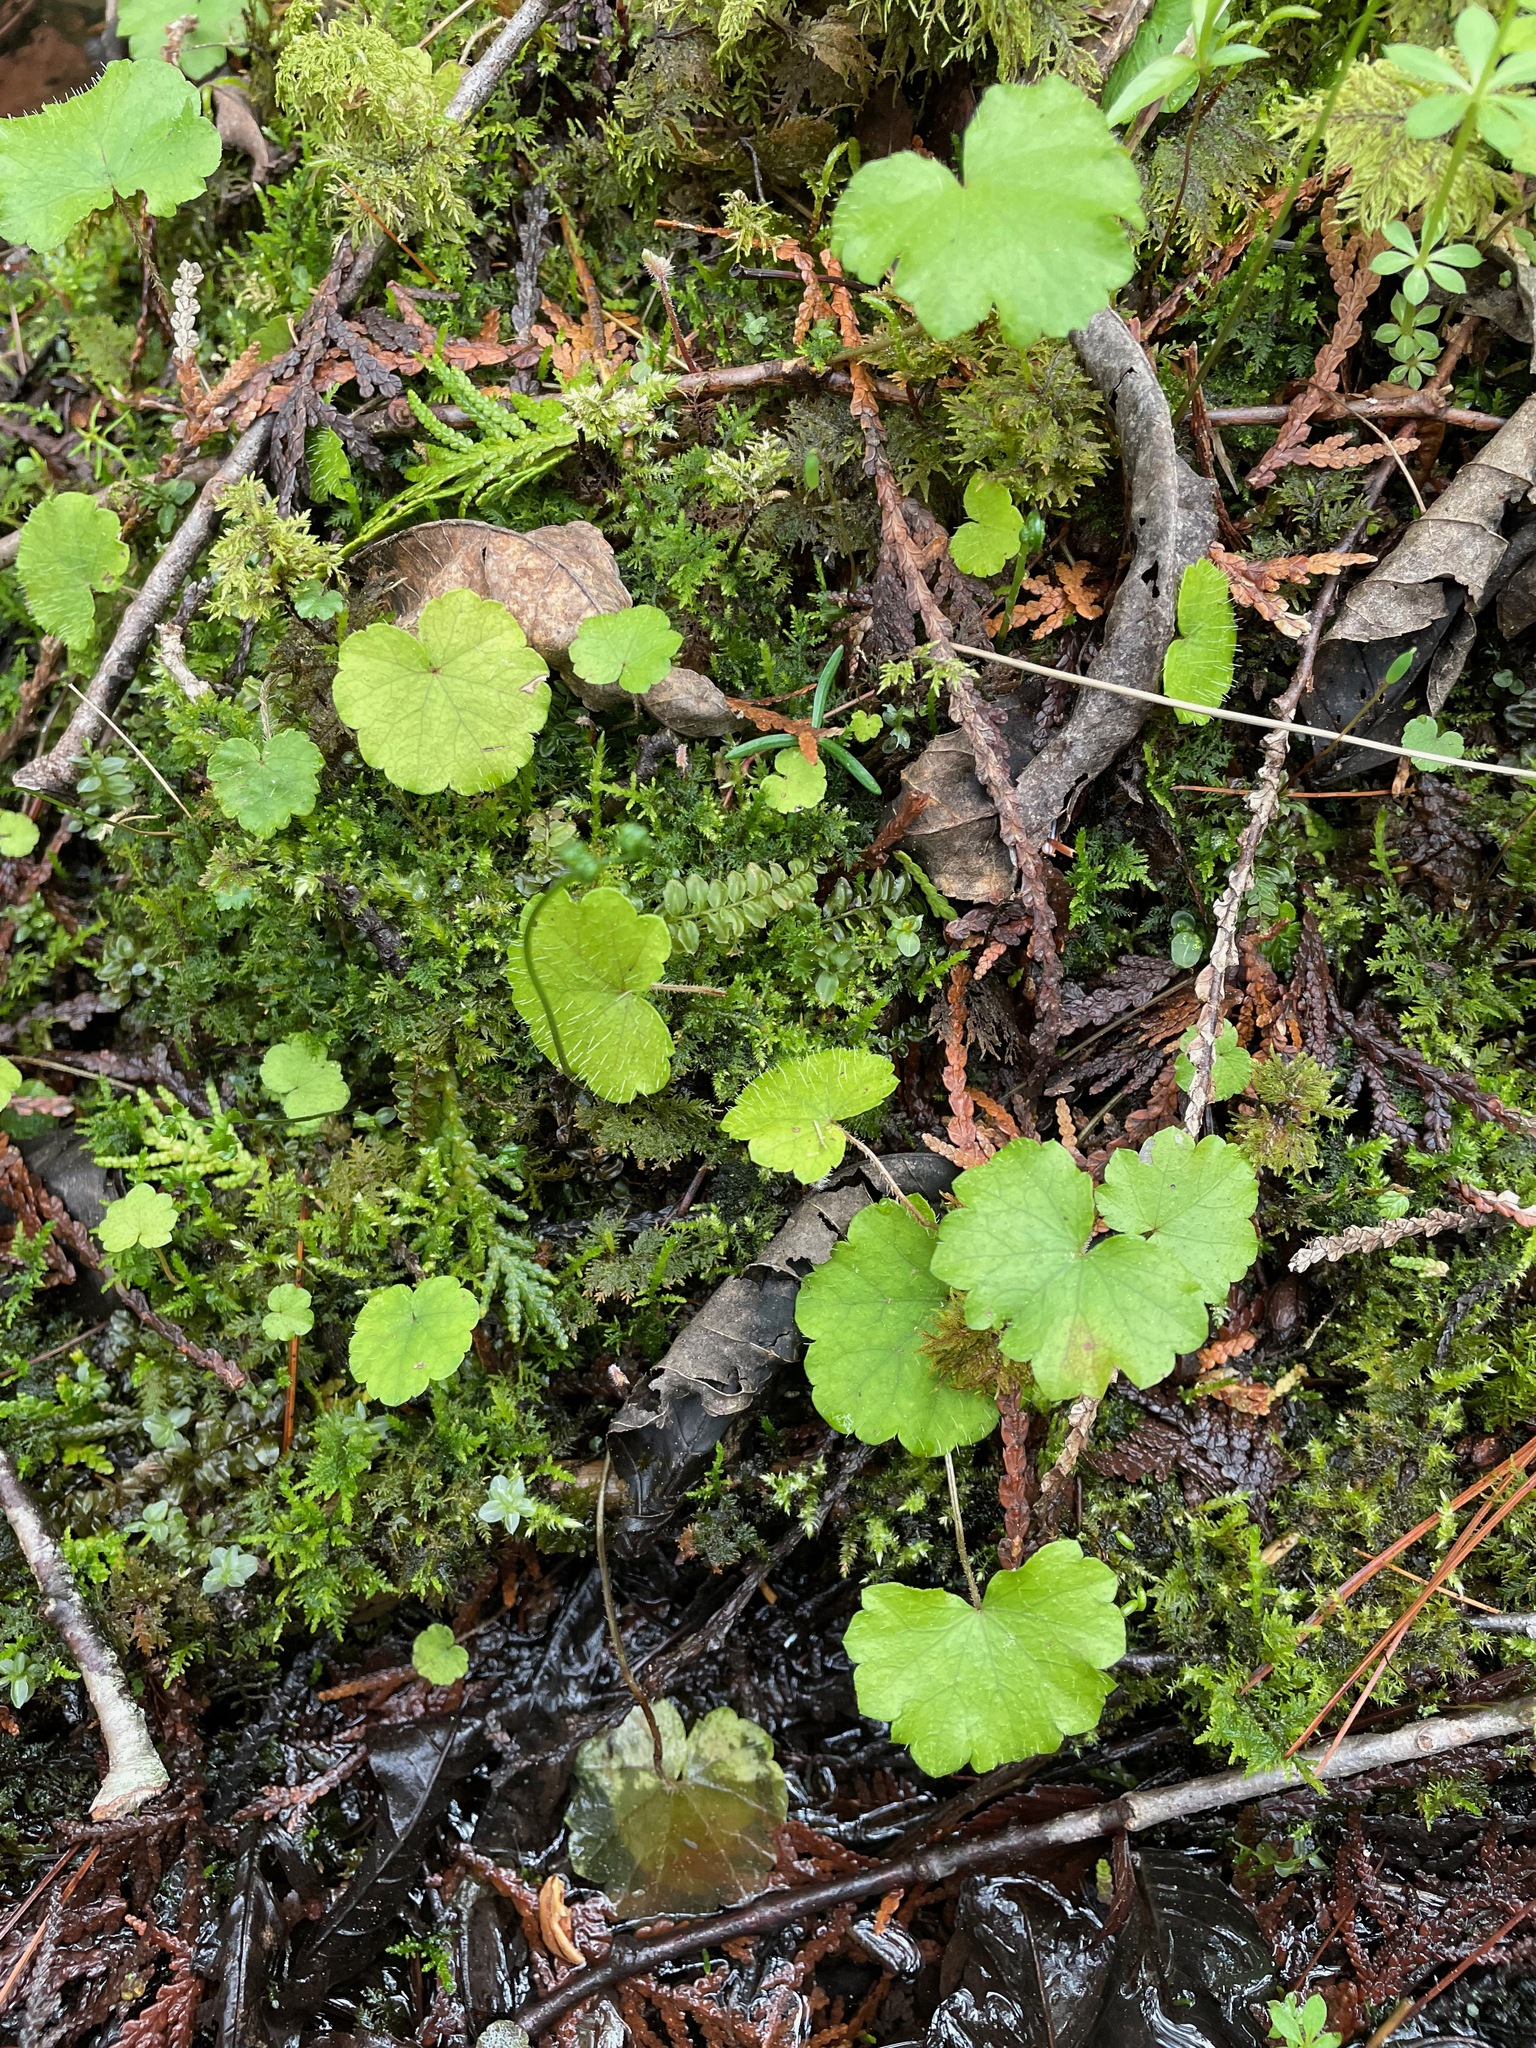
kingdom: Plantae
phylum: Tracheophyta
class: Magnoliopsida
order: Saxifragales
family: Saxifragaceae
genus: Mitella
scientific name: Mitella nuda
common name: Bare-stemmed bishop's-cap
